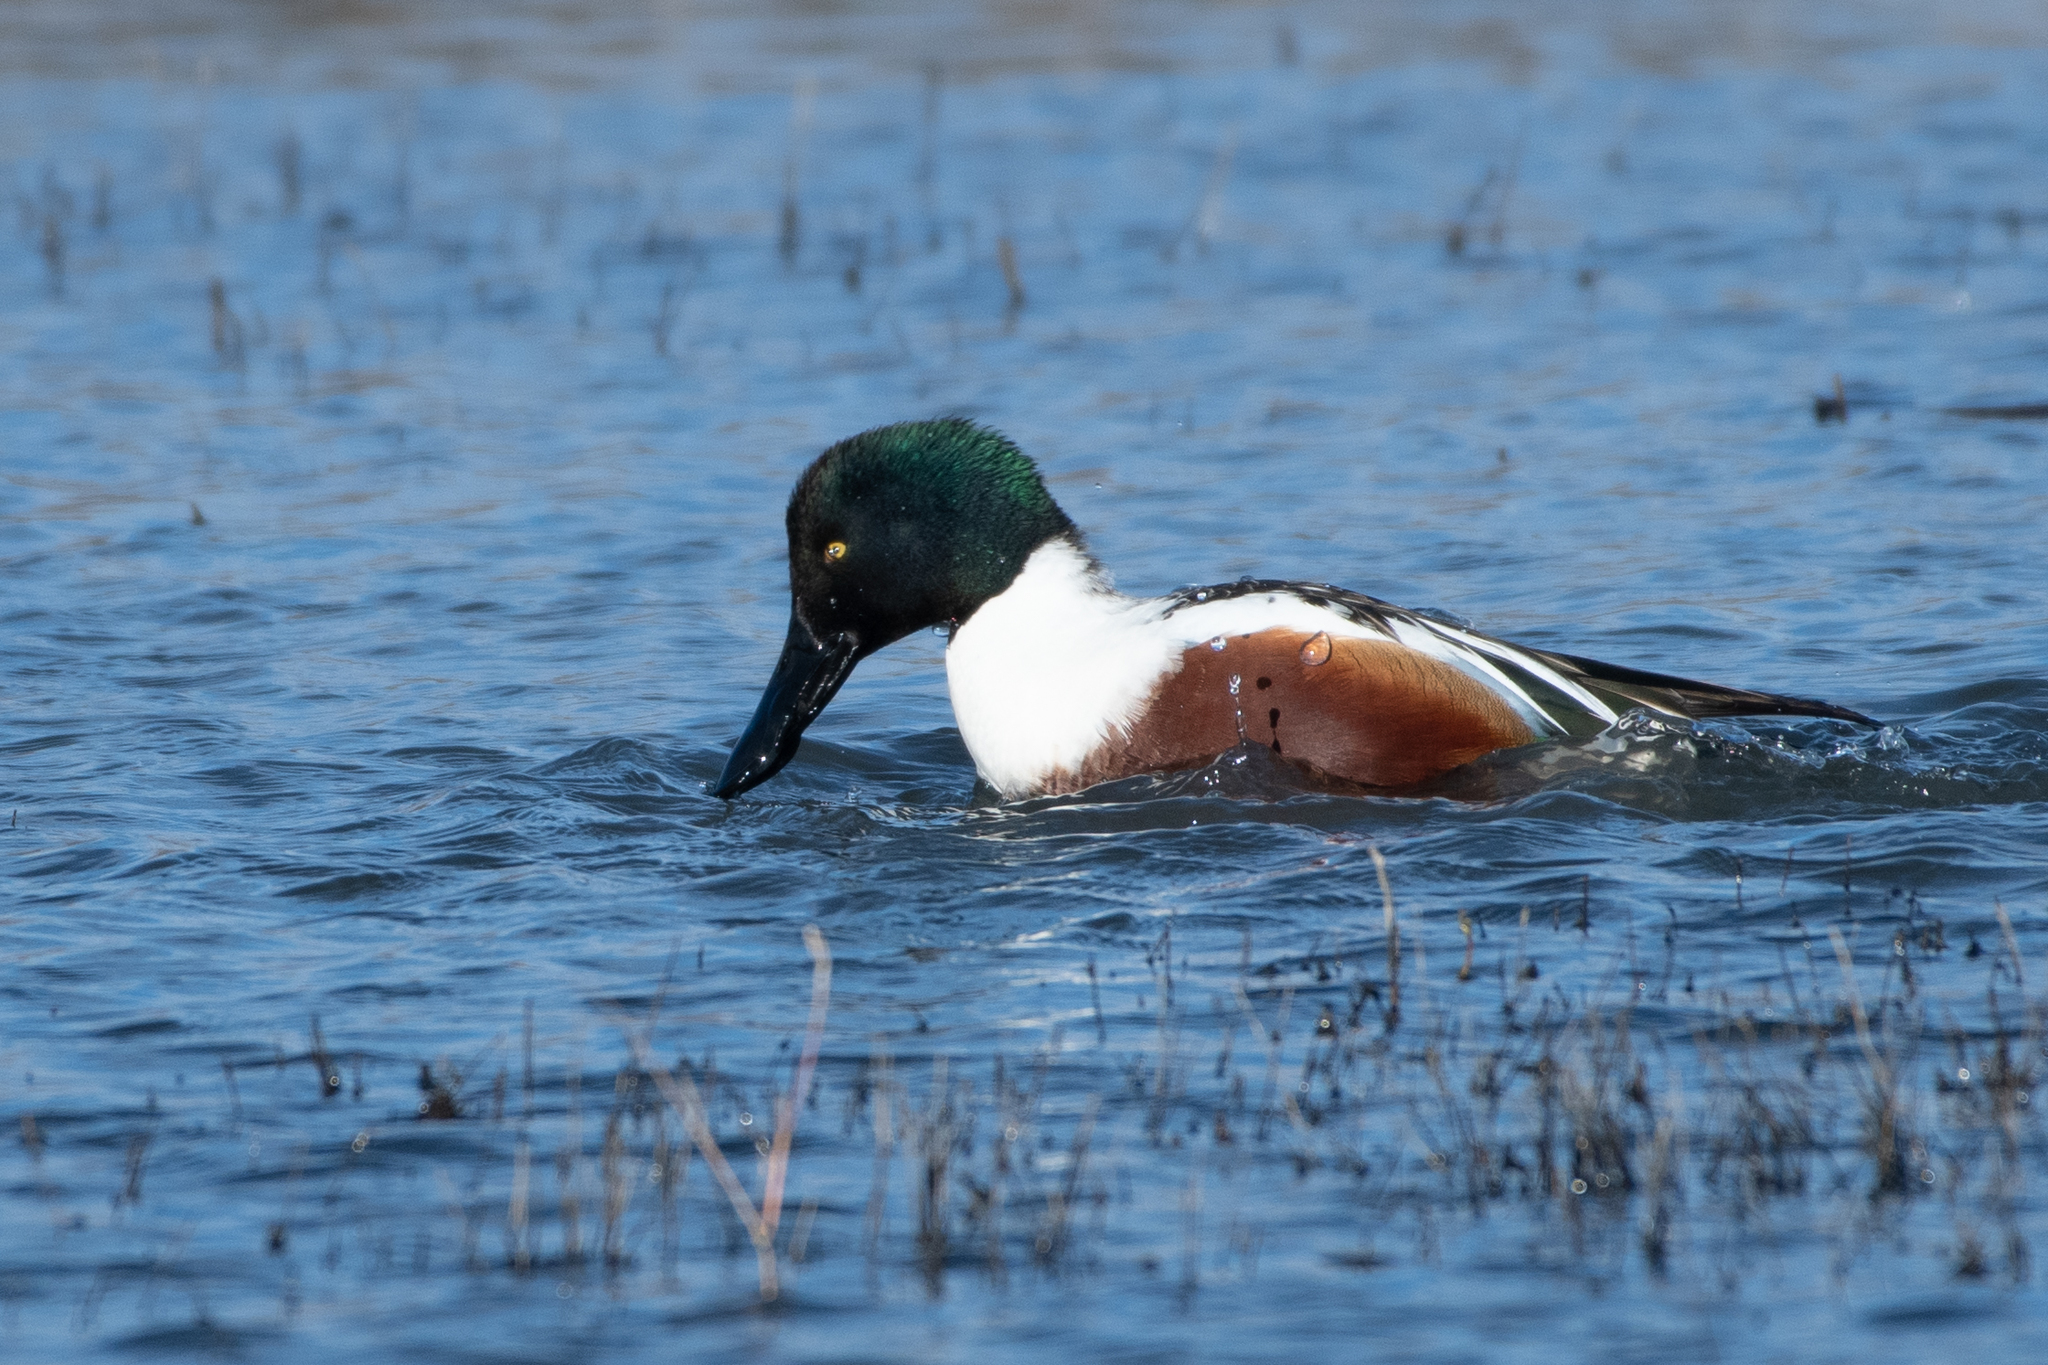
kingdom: Animalia
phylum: Chordata
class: Aves
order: Anseriformes
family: Anatidae
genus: Spatula
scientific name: Spatula clypeata
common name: Northern shoveler
